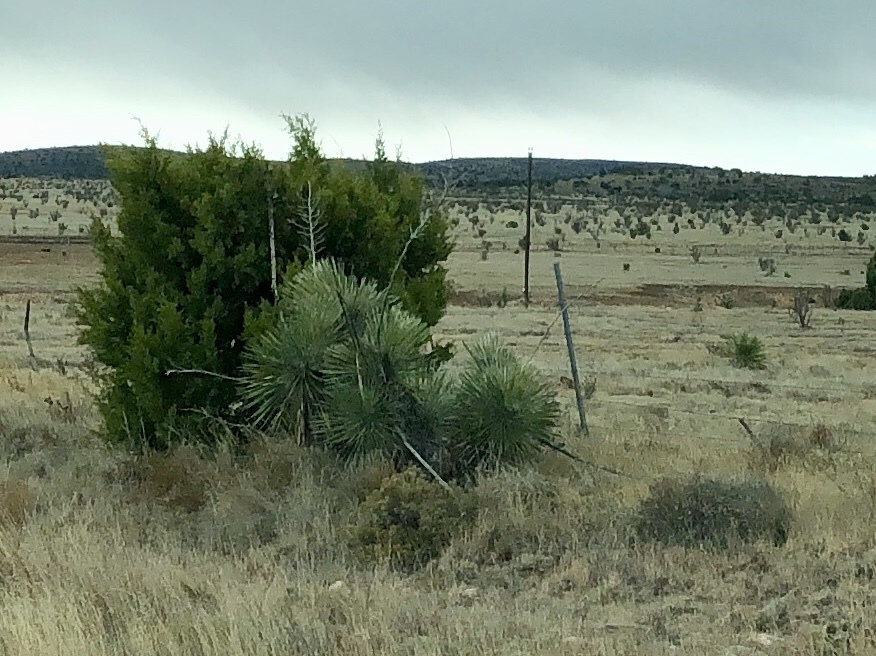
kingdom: Plantae
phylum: Tracheophyta
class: Liliopsida
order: Asparagales
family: Asparagaceae
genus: Yucca
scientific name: Yucca elata
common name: Palmella
